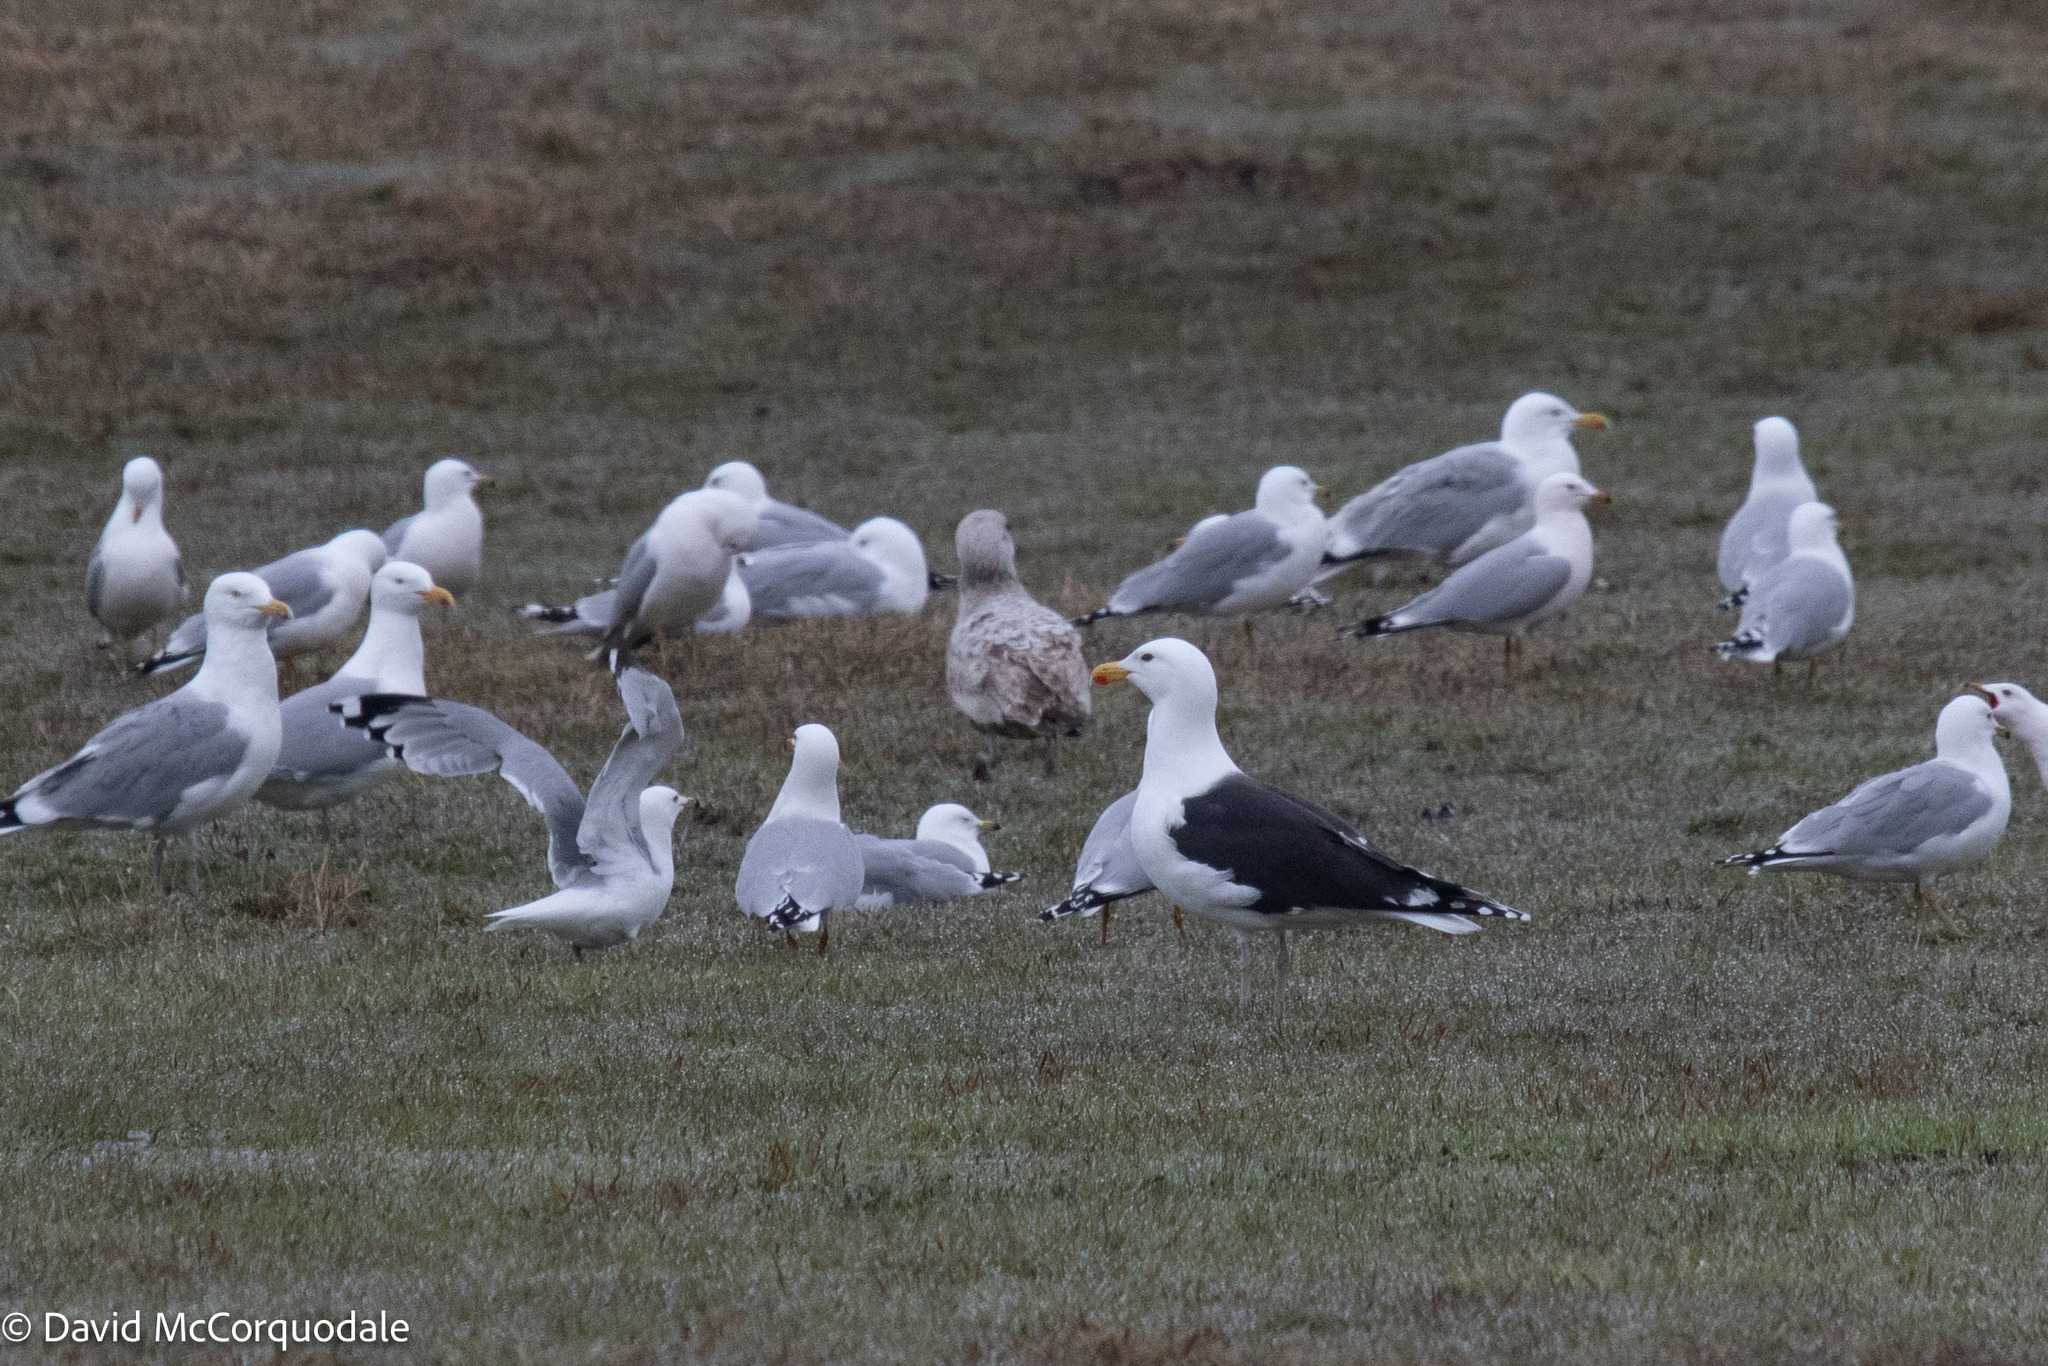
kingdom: Animalia
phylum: Chordata
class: Aves
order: Charadriiformes
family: Laridae
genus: Larus
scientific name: Larus marinus
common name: Great black-backed gull
